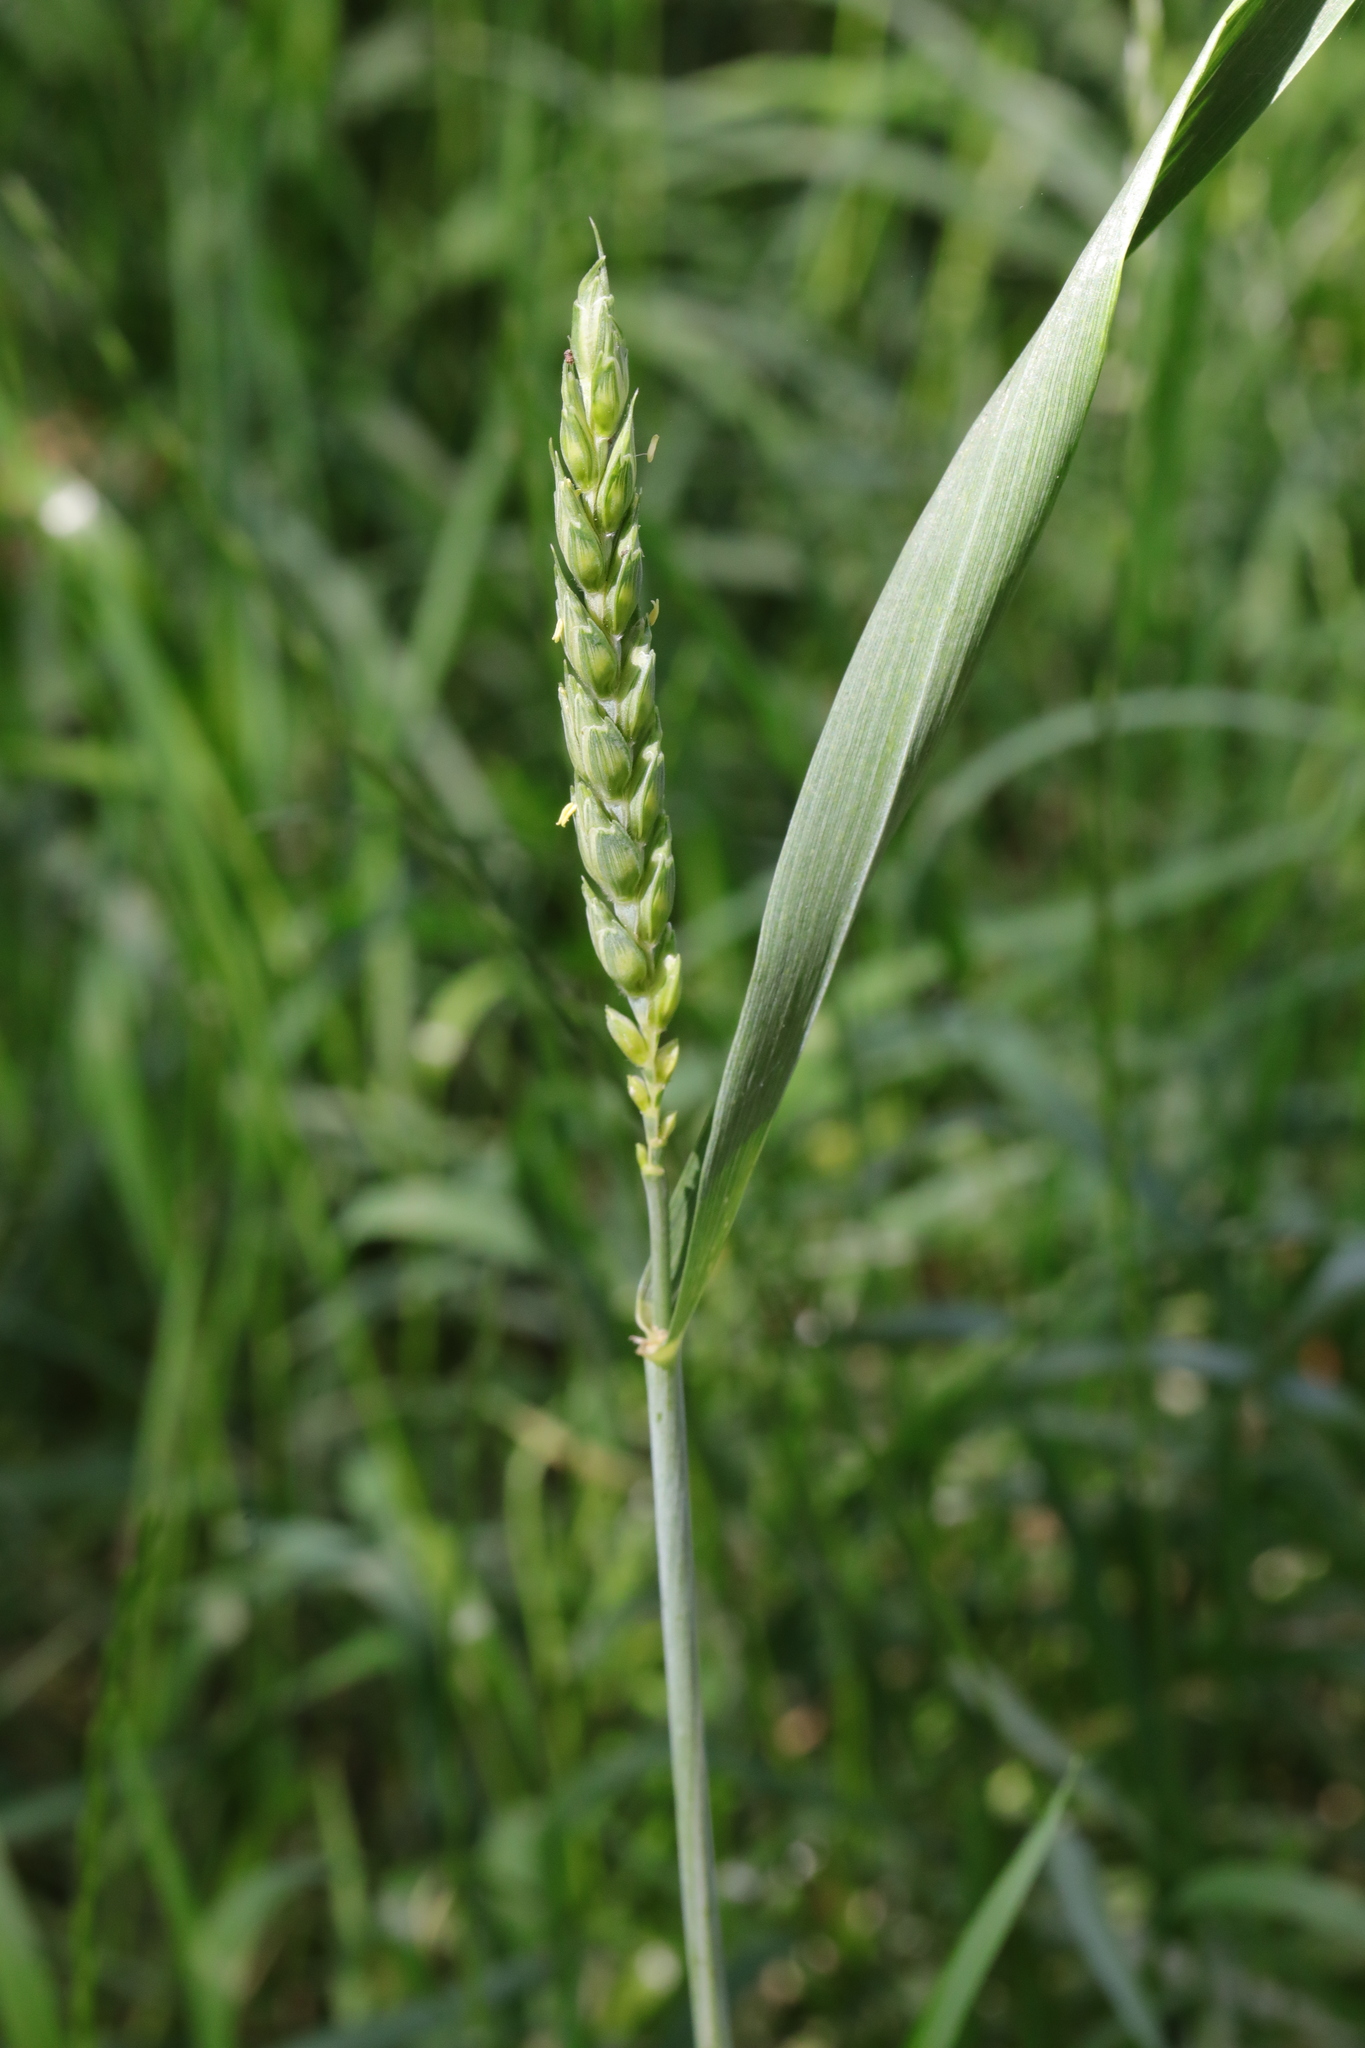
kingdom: Plantae
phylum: Tracheophyta
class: Liliopsida
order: Poales
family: Poaceae
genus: Triticum
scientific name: Triticum aestivum
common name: Common wheat
